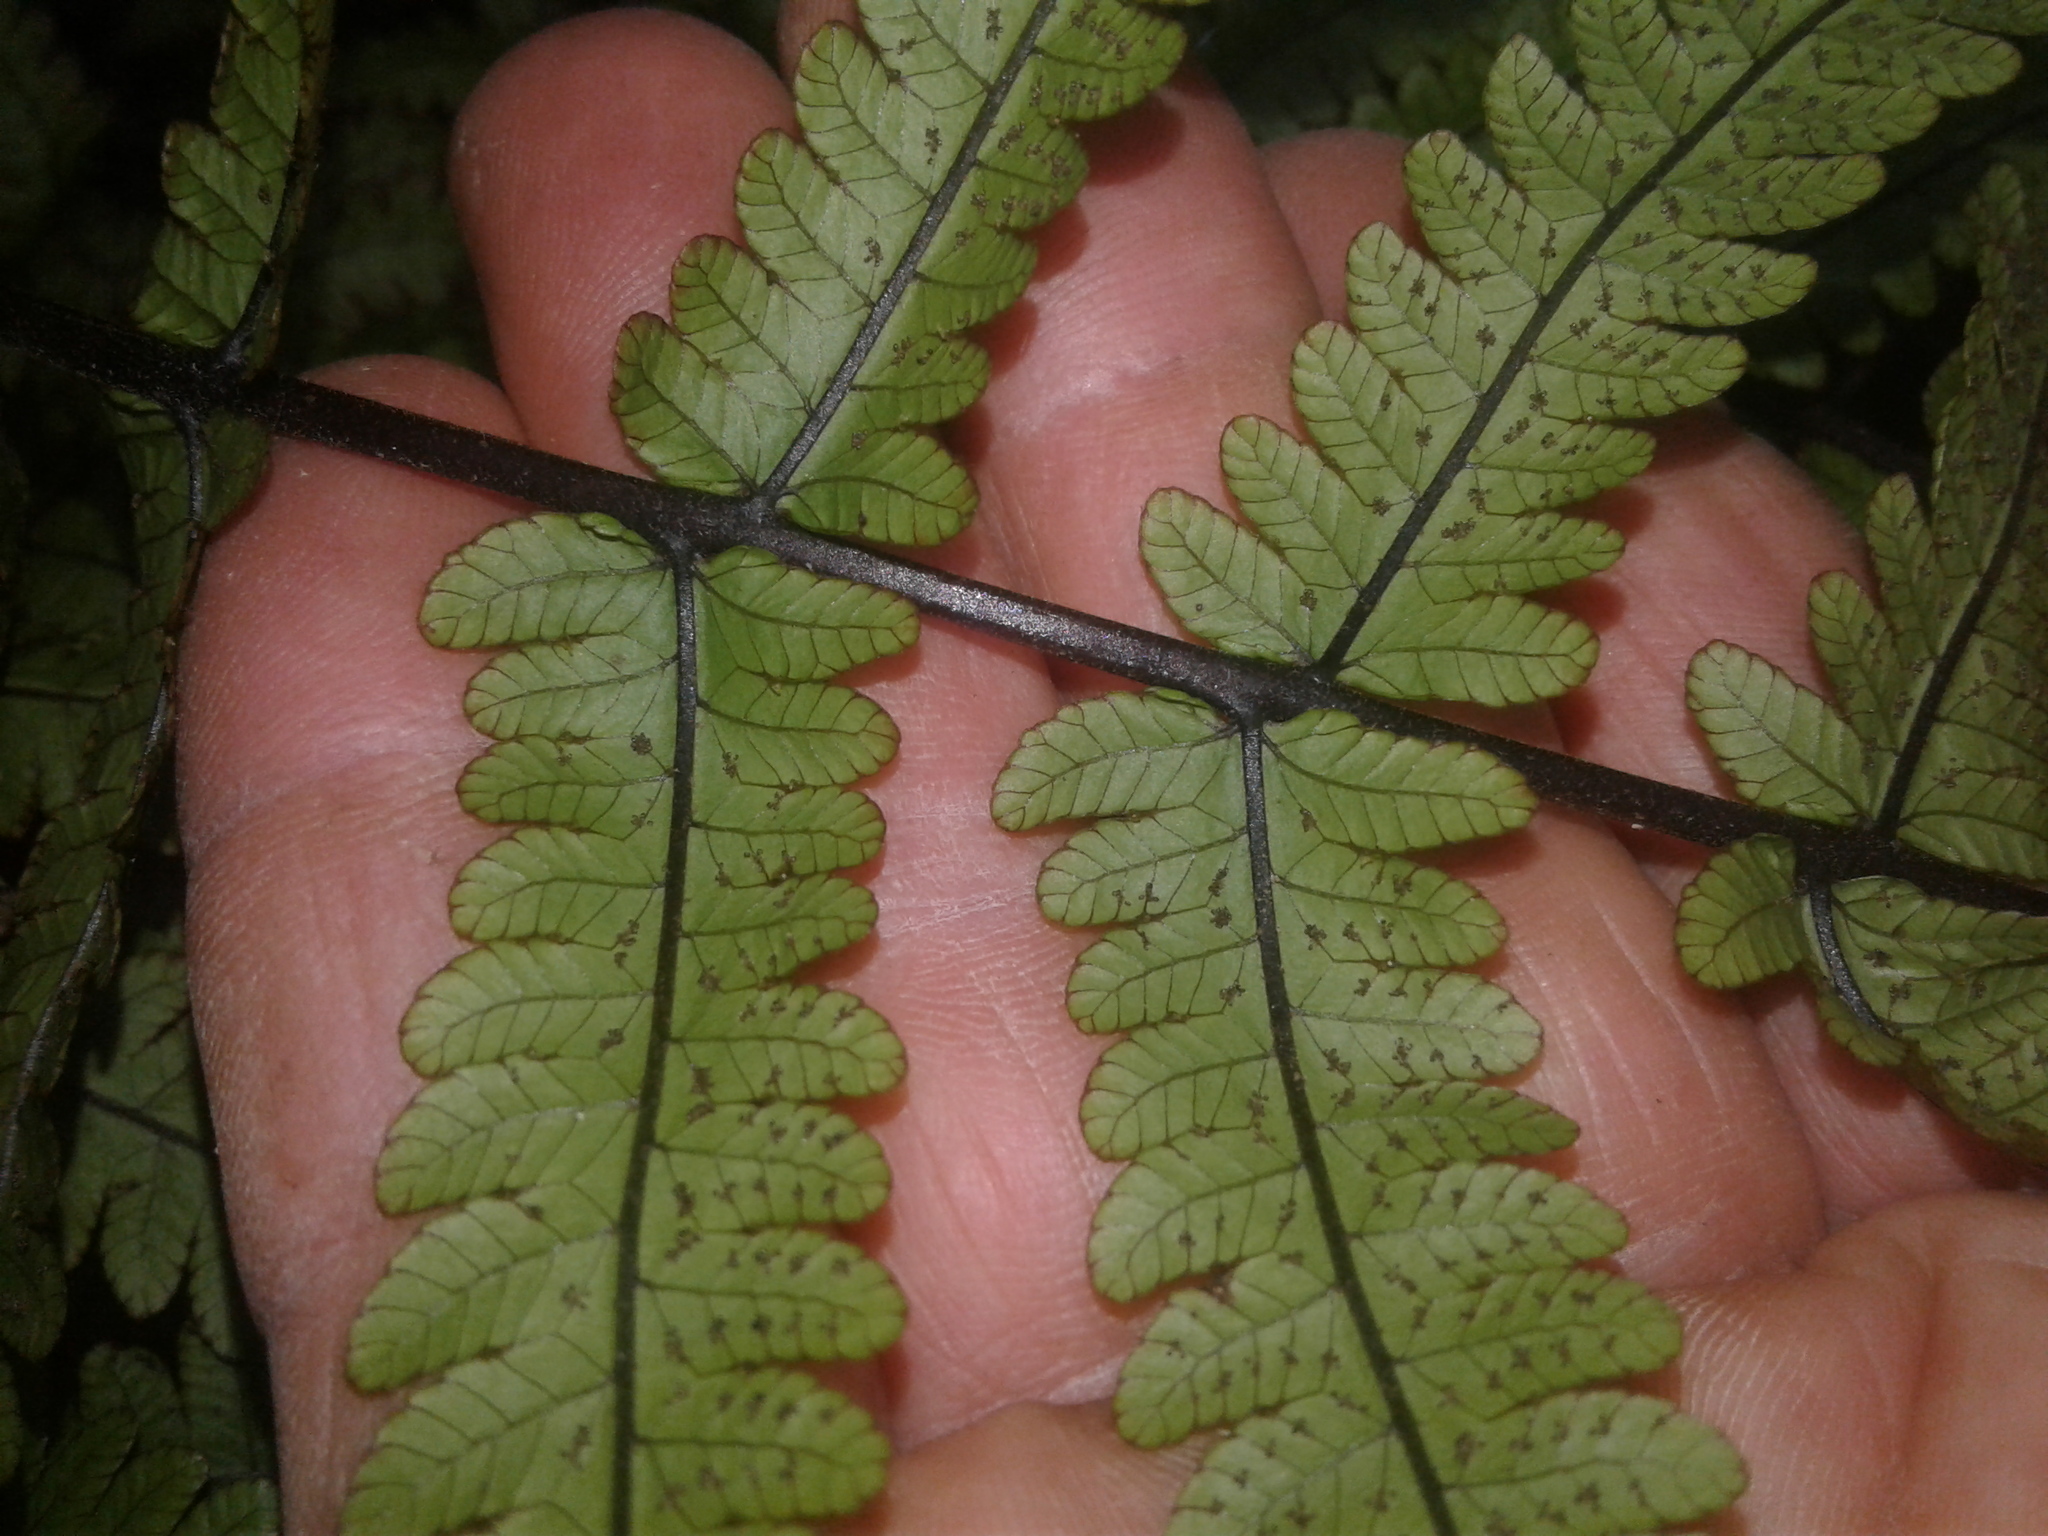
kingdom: Plantae
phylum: Tracheophyta
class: Polypodiopsida
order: Polypodiales
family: Thelypteridaceae
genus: Pakau
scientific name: Pakau pennigera
